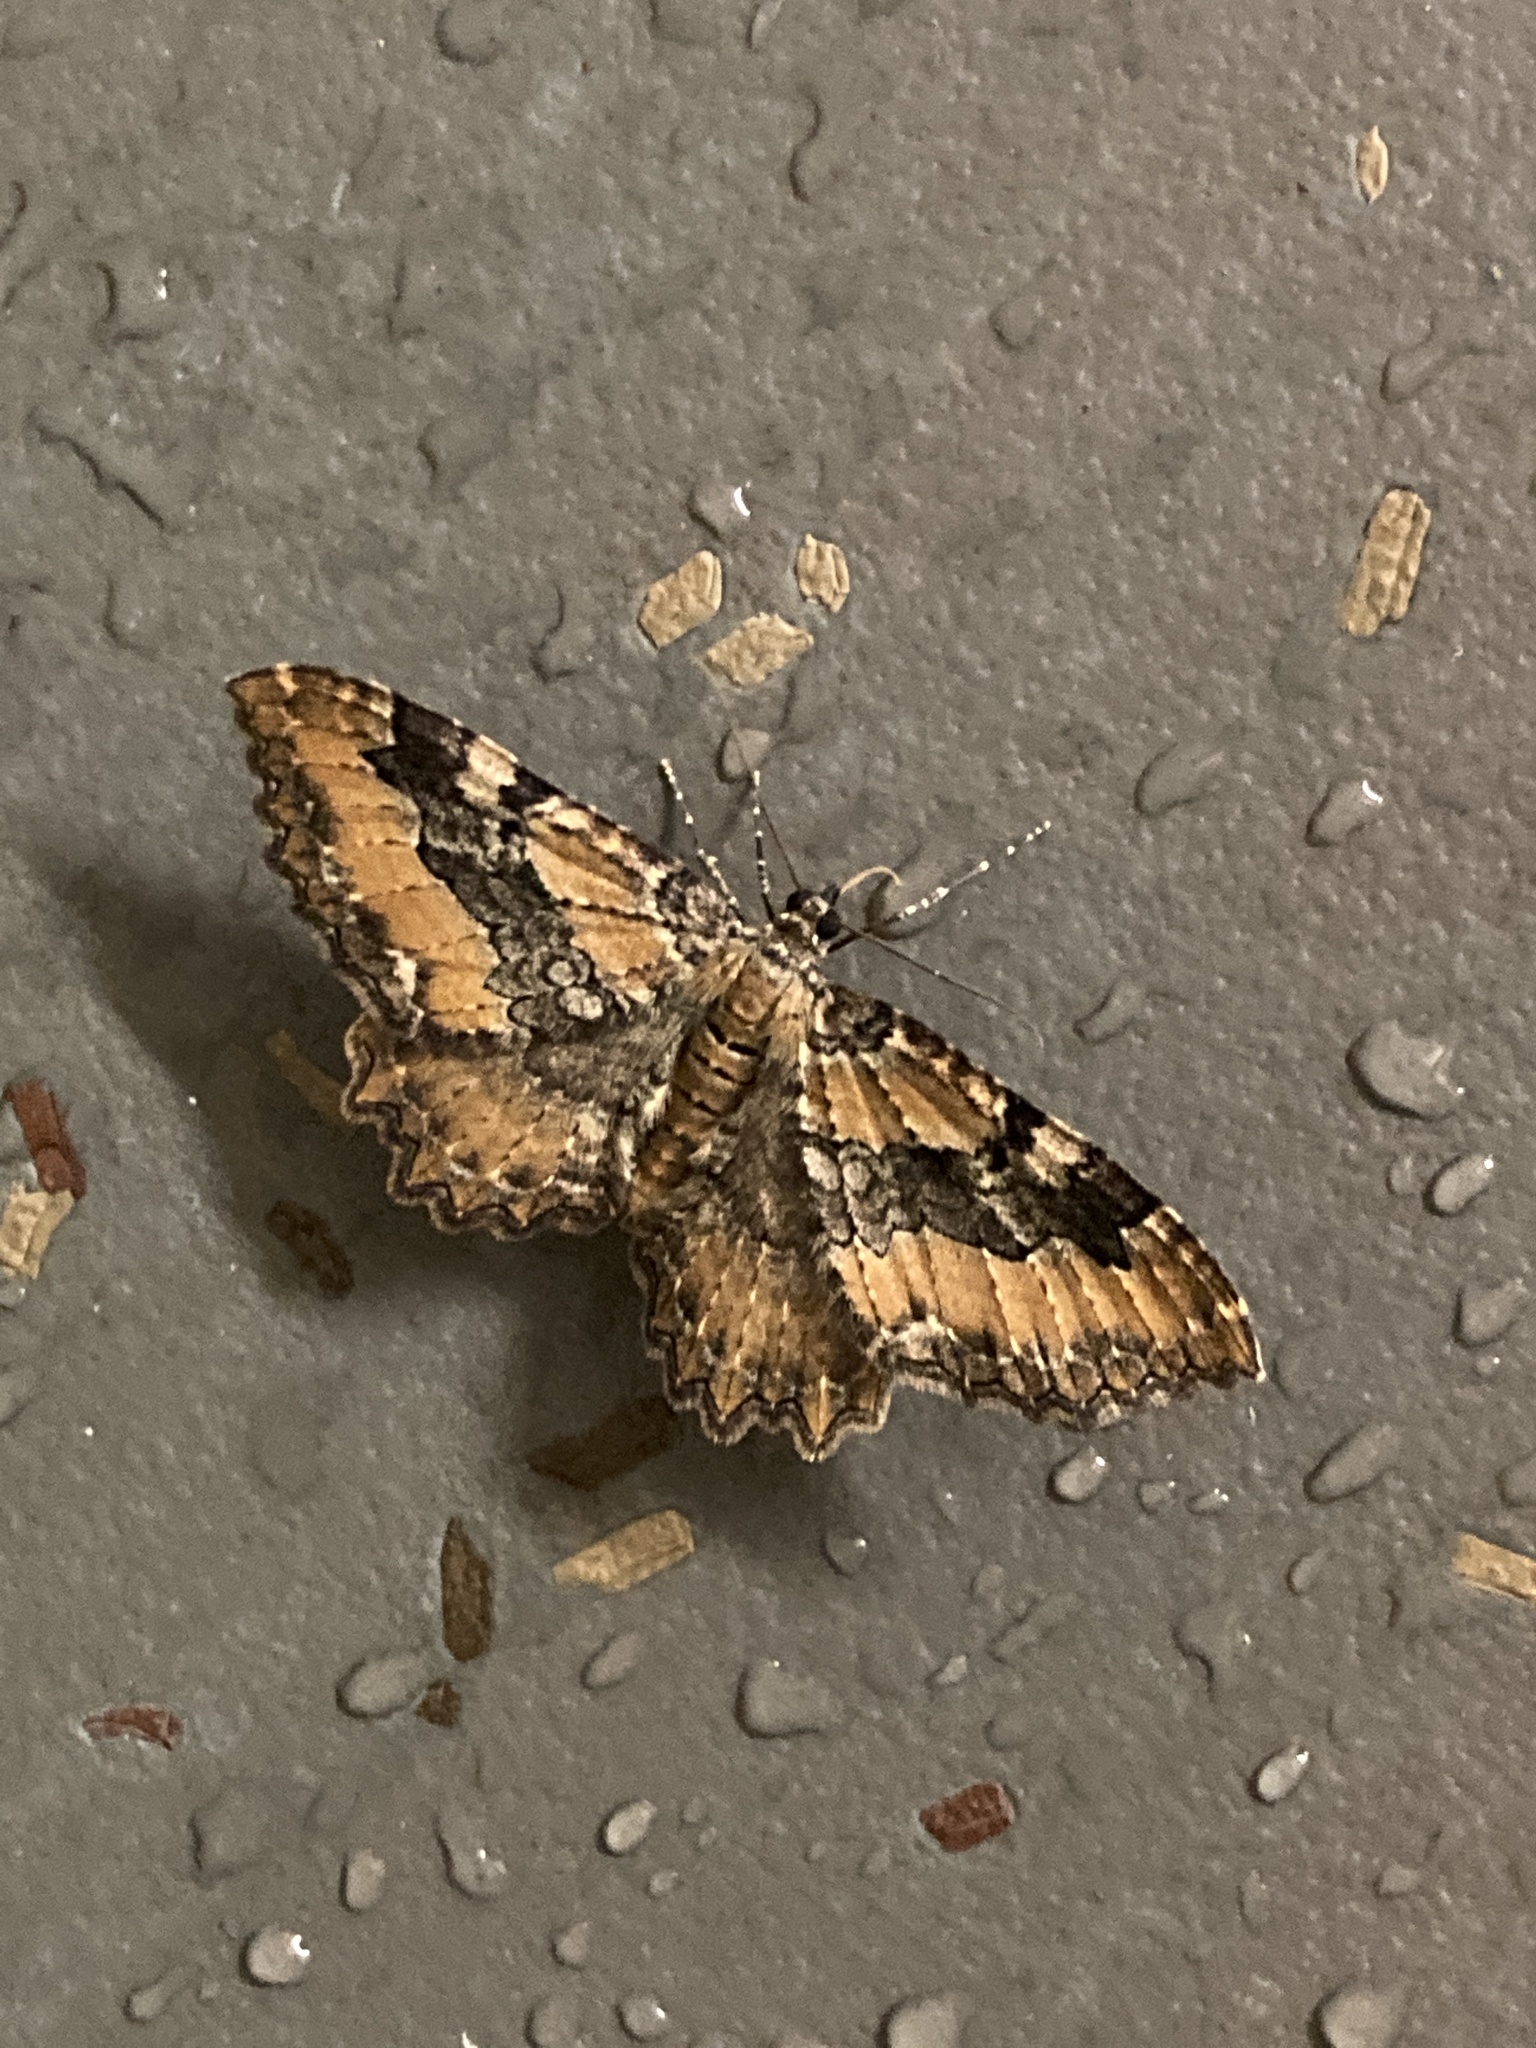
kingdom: Animalia
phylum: Arthropoda
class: Insecta
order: Lepidoptera
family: Geometridae
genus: Rheumaptera
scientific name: Rheumaptera
